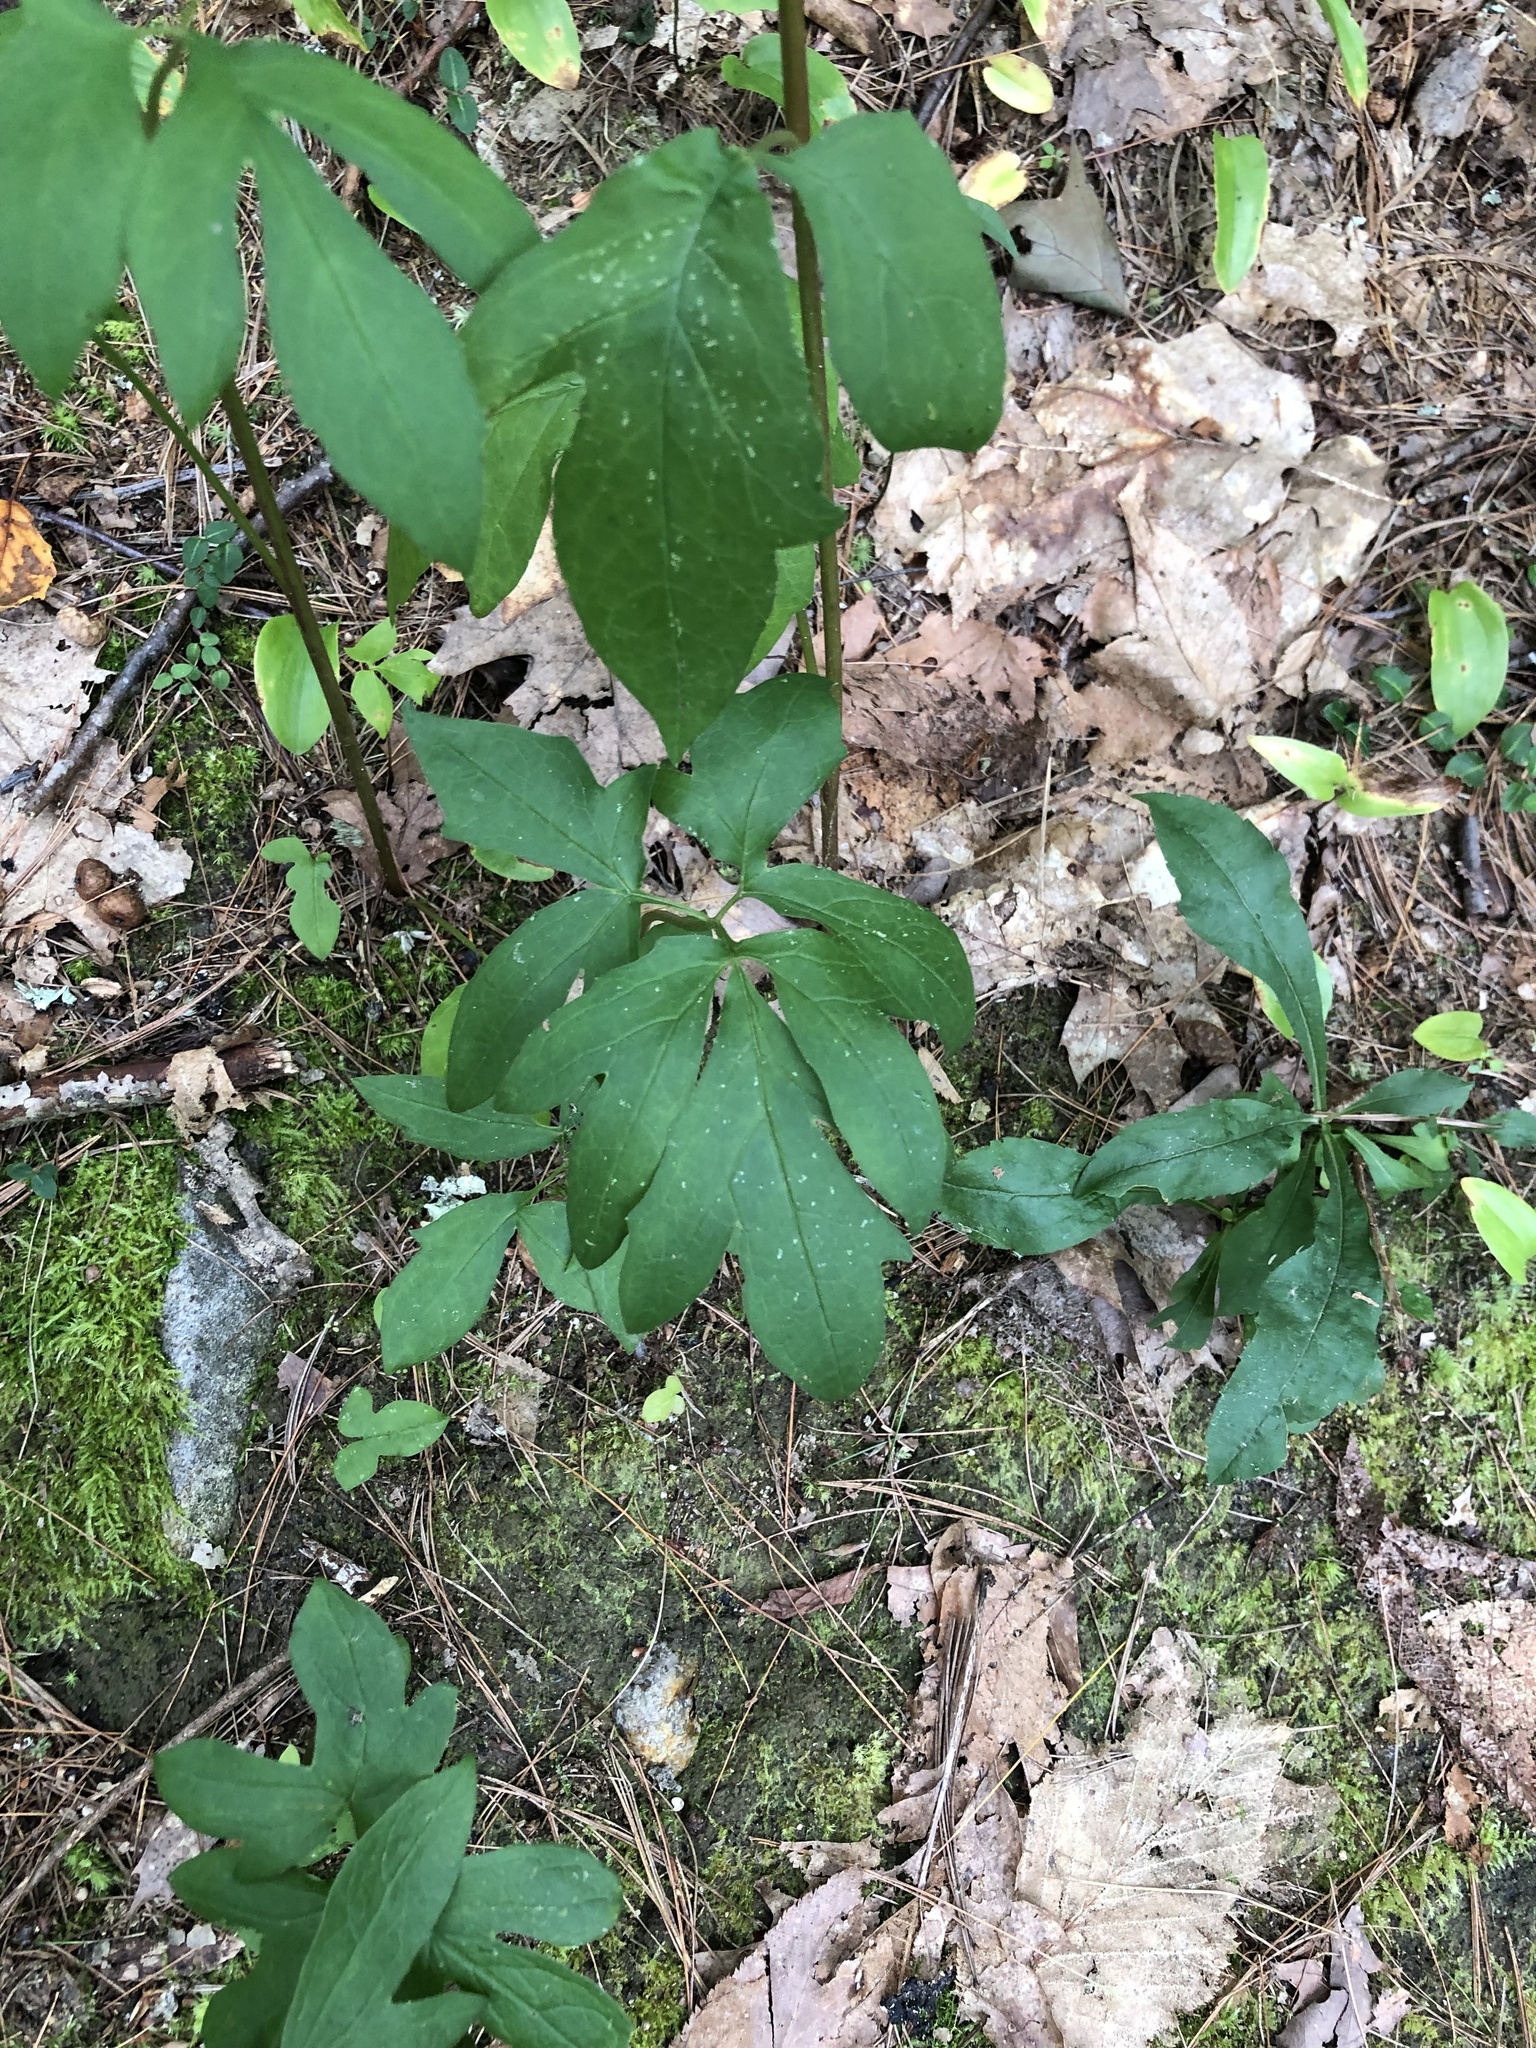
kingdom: Plantae
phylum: Tracheophyta
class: Magnoliopsida
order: Asterales
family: Asteraceae
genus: Nabalus
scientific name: Nabalus
